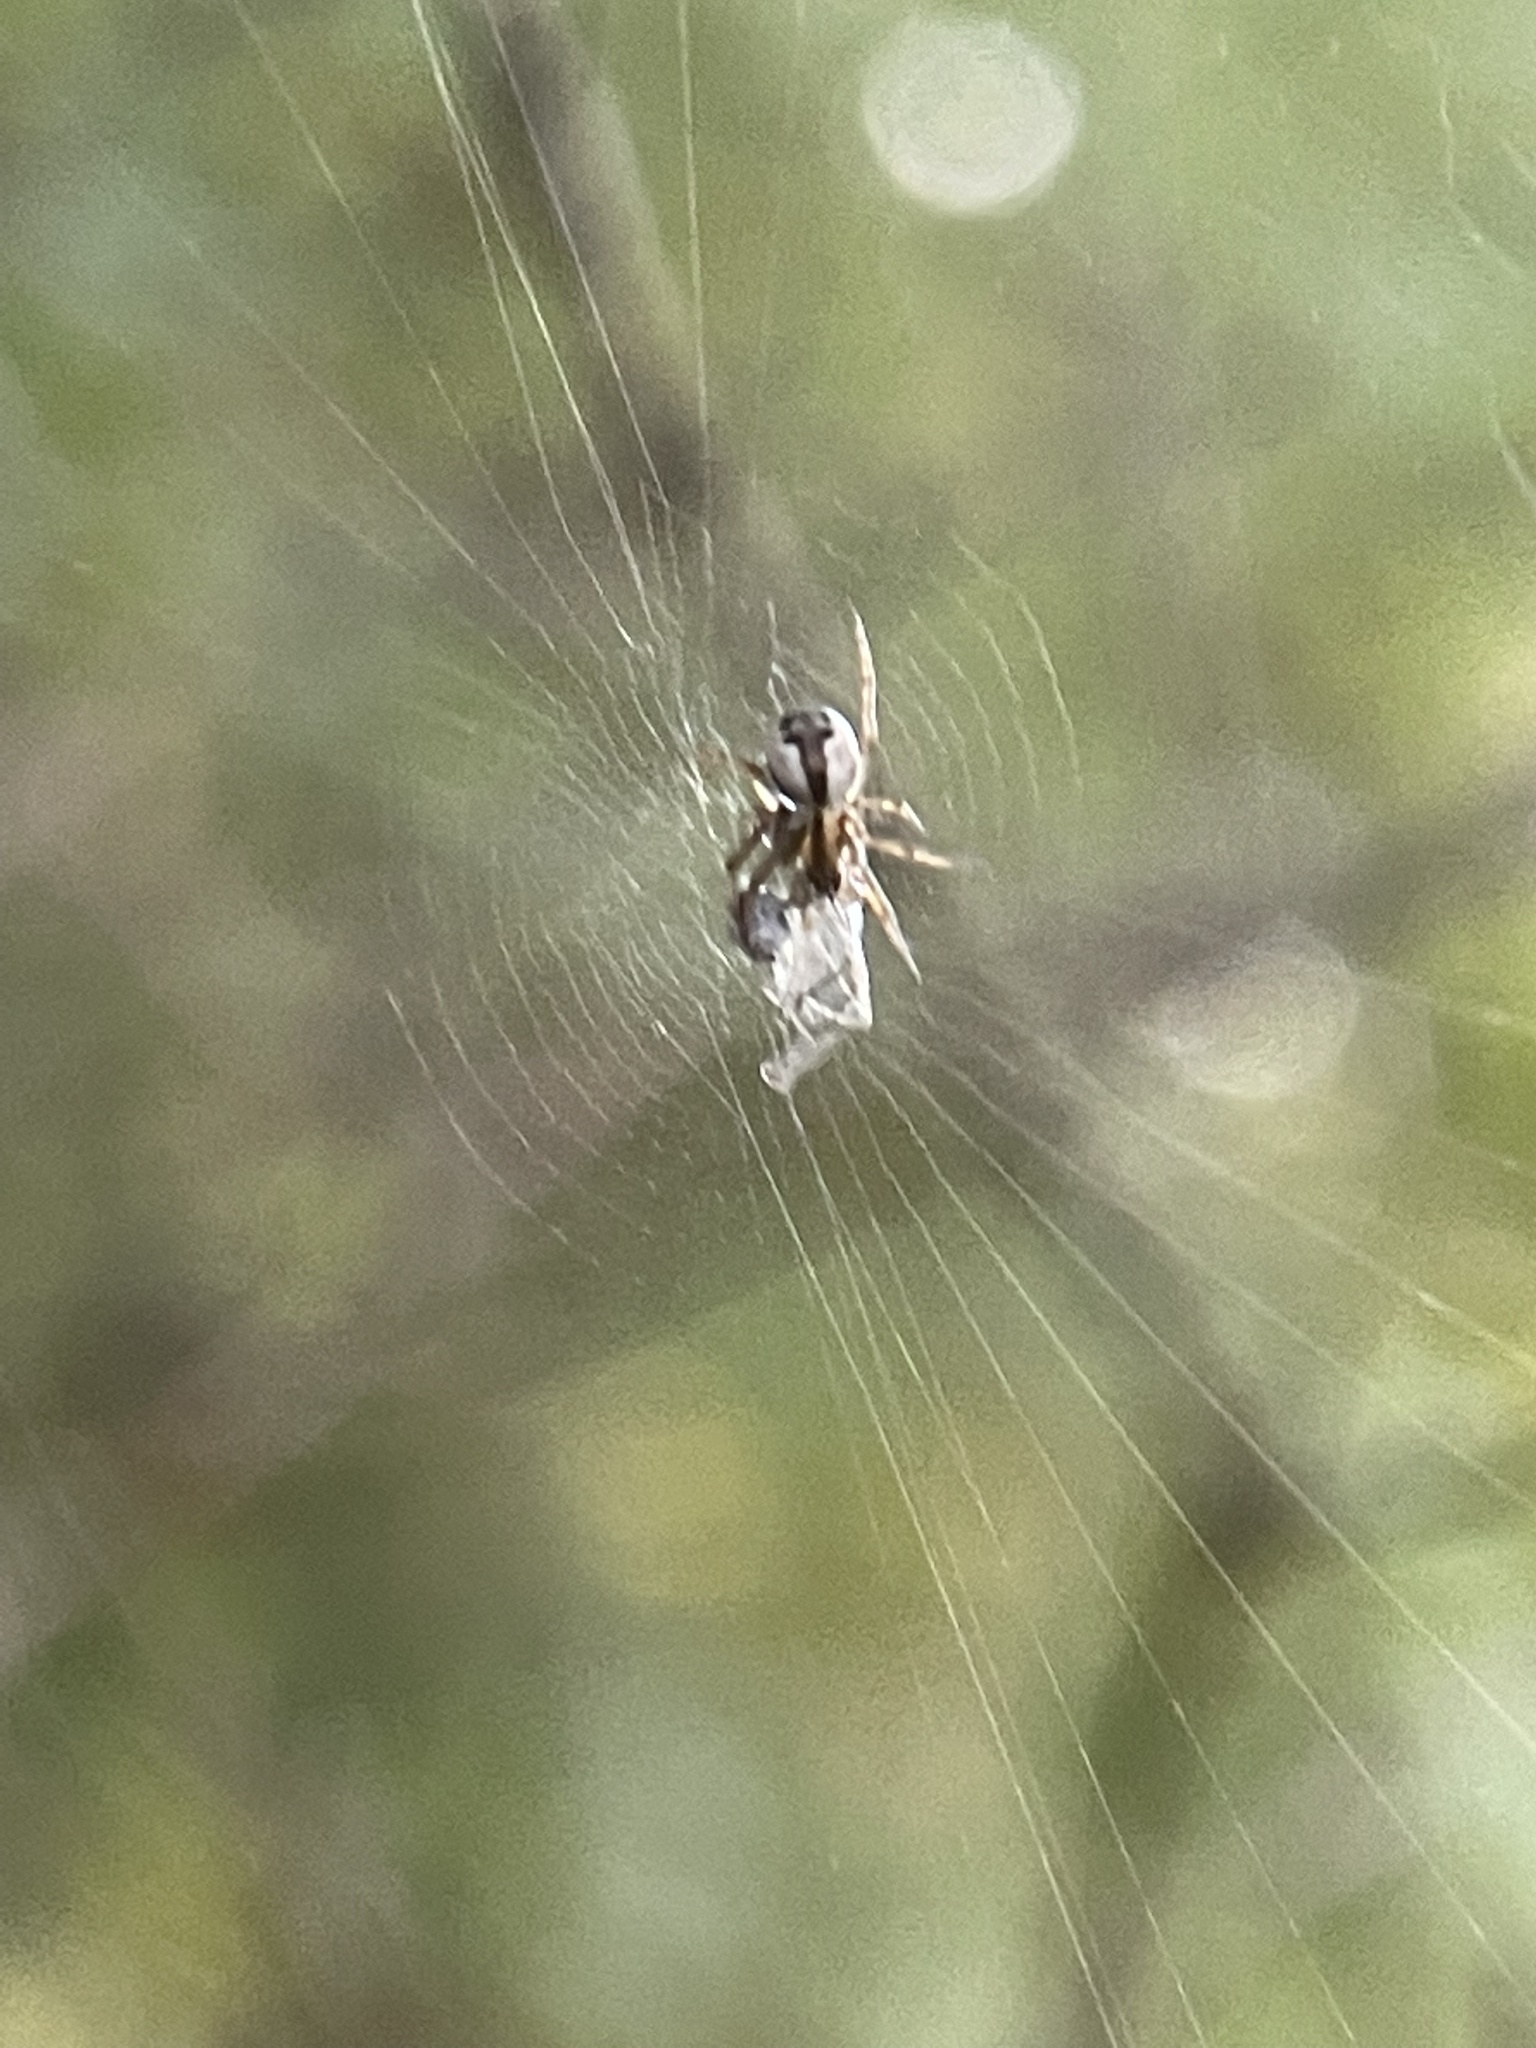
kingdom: Animalia
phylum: Arthropoda
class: Arachnida
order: Araneae
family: Araneidae
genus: Mangora
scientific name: Mangora placida
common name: Tuft-legged orbweaver
